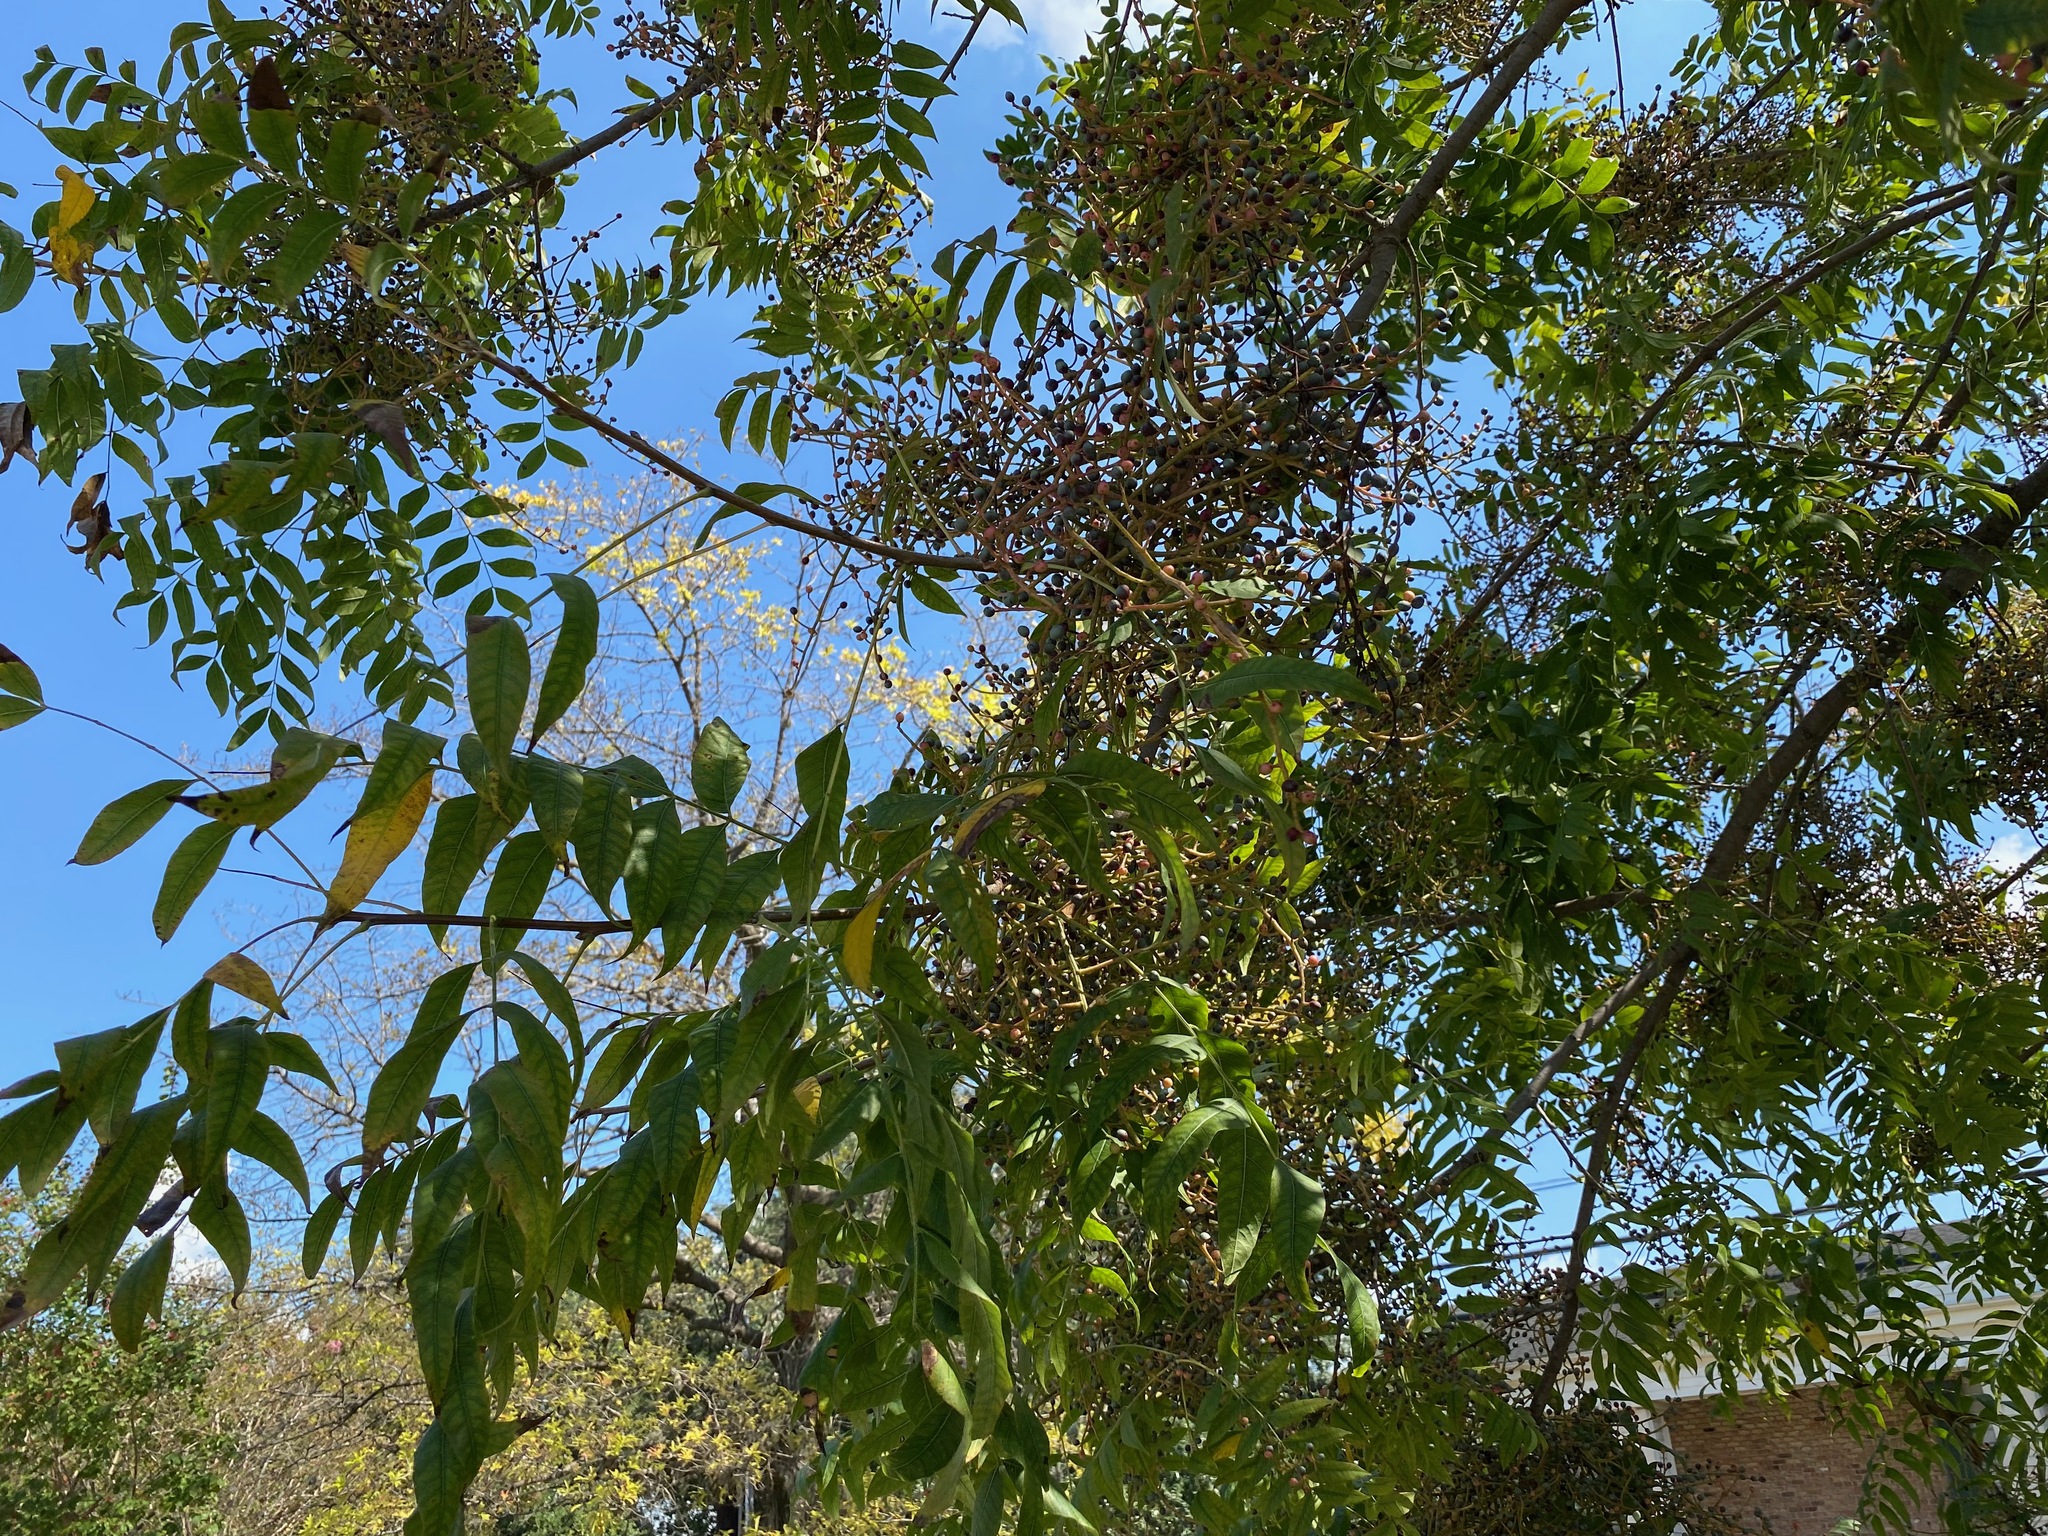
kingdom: Plantae
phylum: Tracheophyta
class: Magnoliopsida
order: Sapindales
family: Anacardiaceae
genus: Pistacia
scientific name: Pistacia chinensis
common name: Chinese pistache
